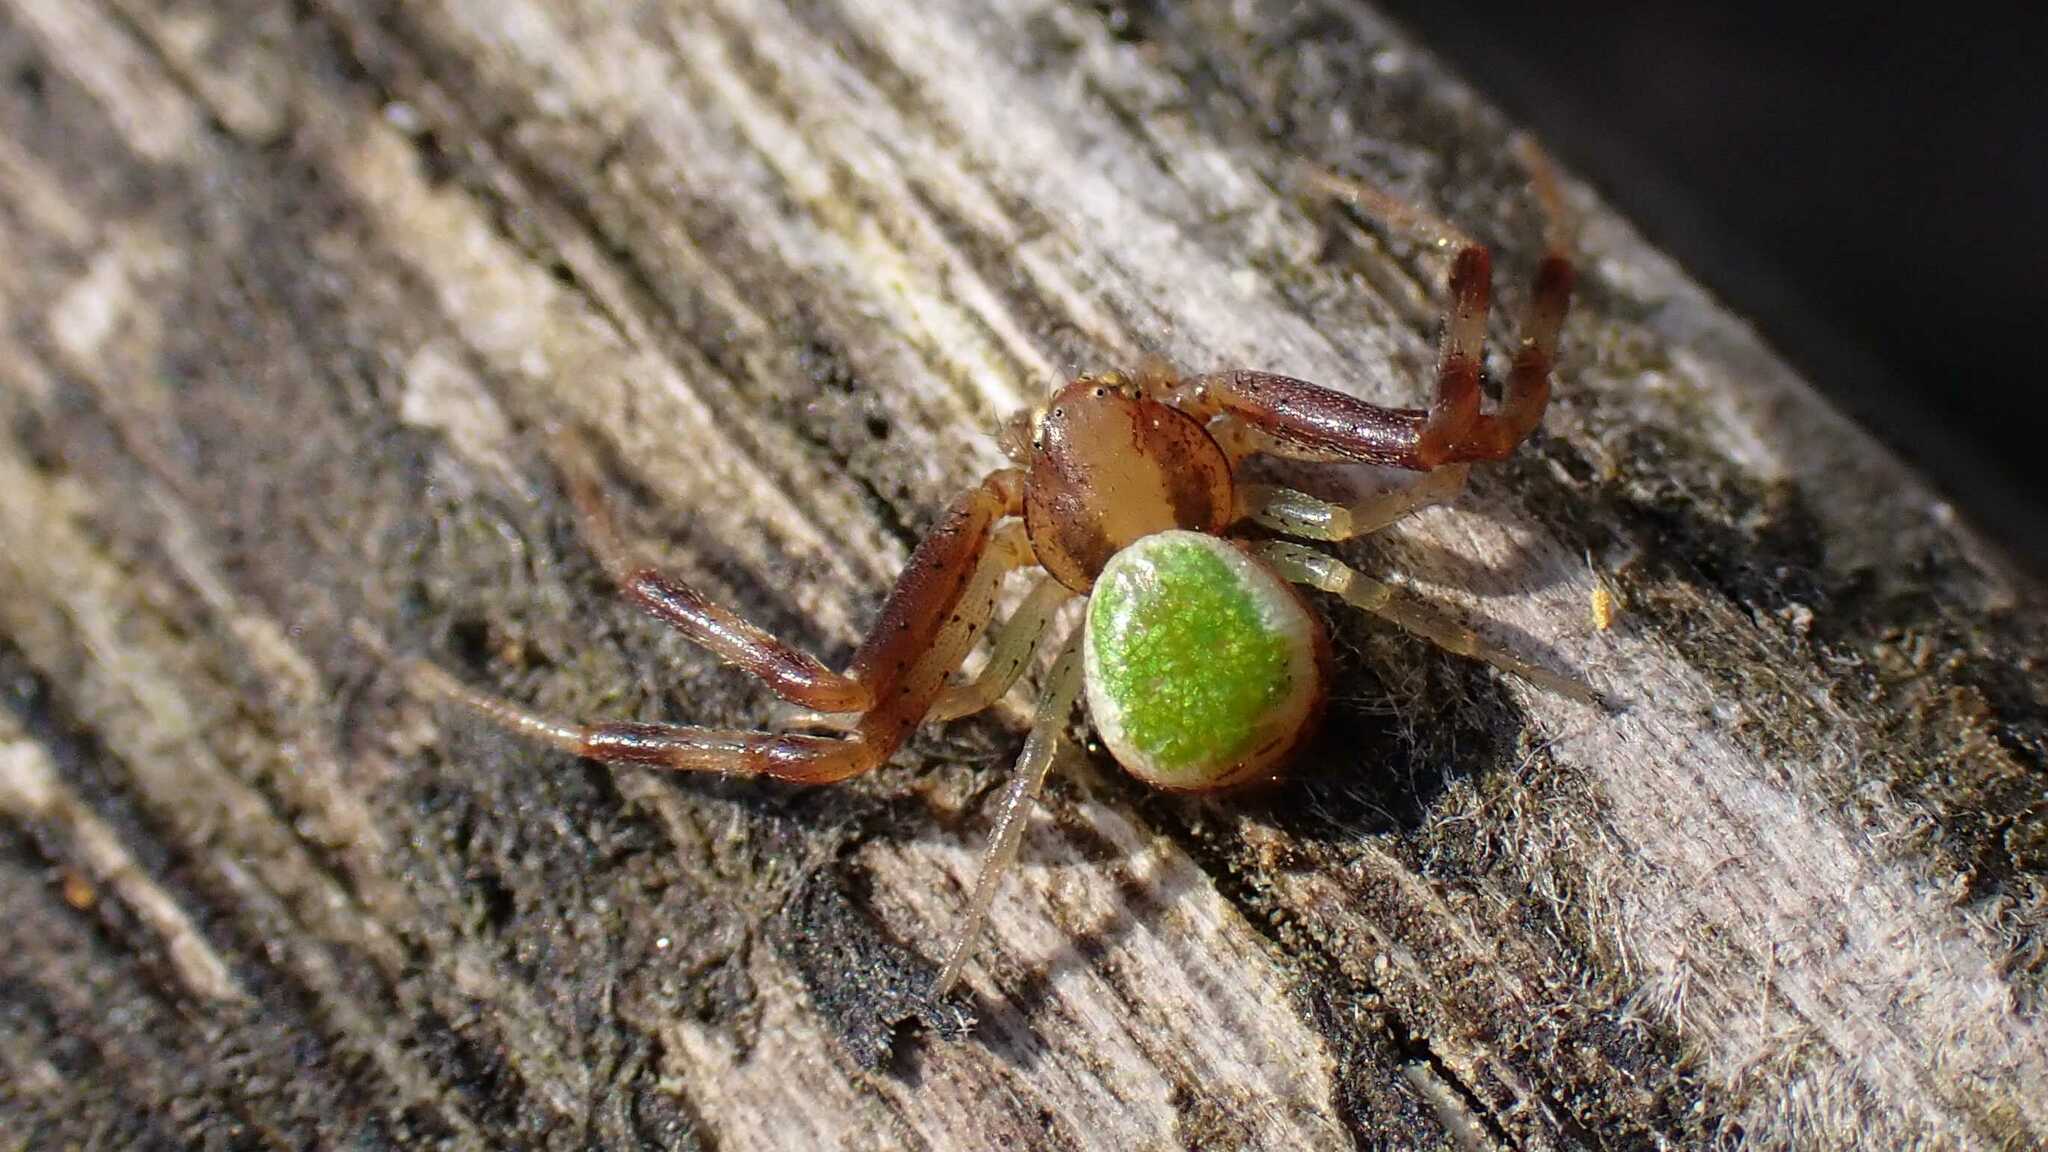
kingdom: Animalia
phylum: Arthropoda
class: Arachnida
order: Araneae
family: Thomisidae
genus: Ebrechtella
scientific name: Ebrechtella tricuspidata
